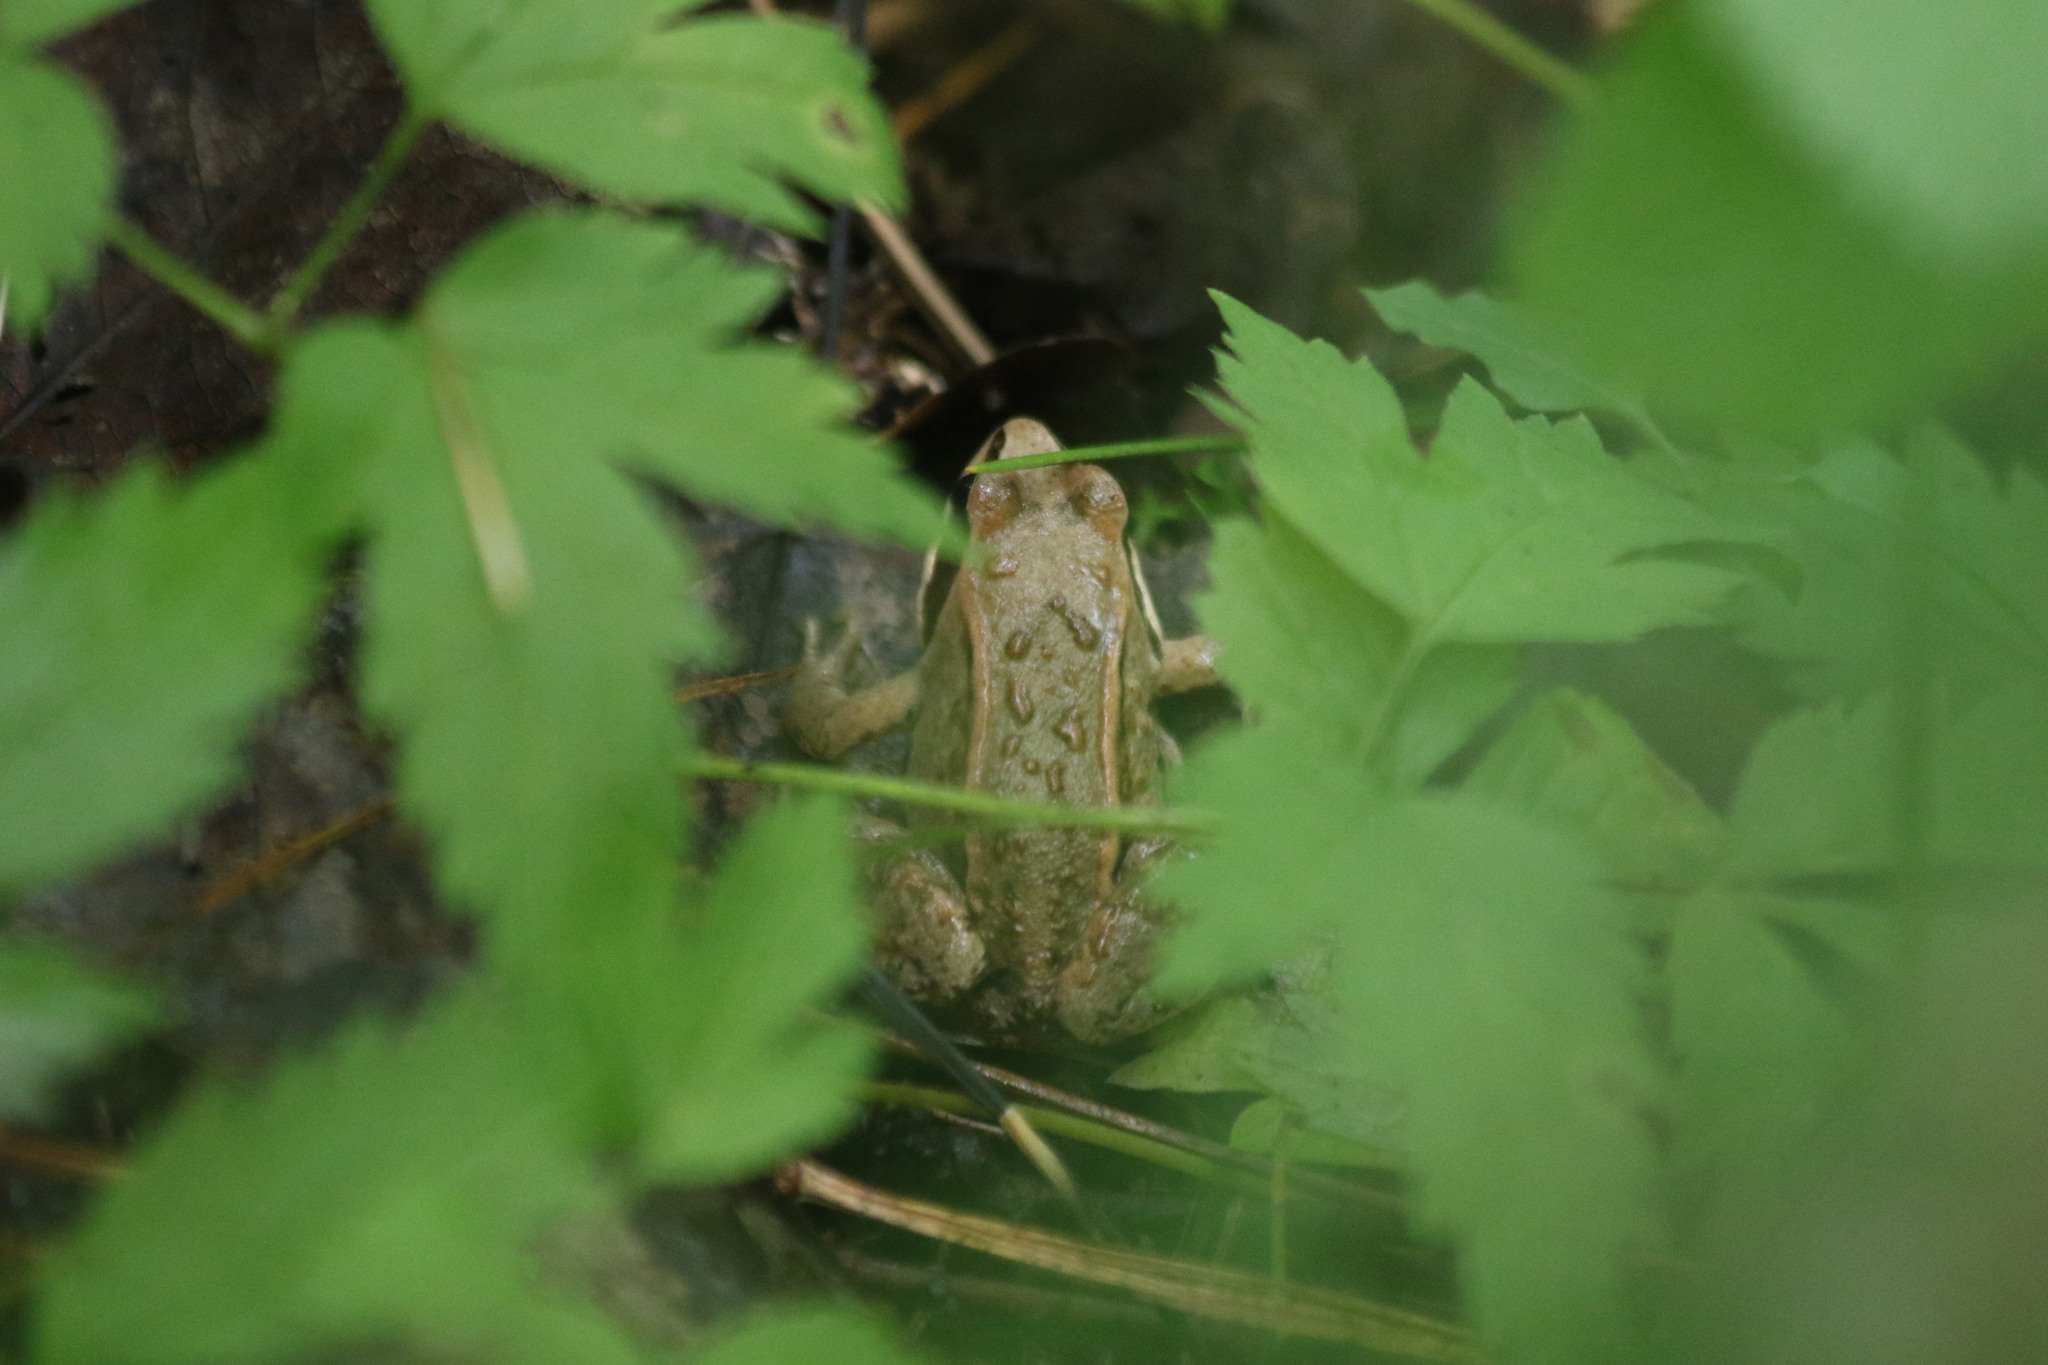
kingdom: Animalia
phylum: Chordata
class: Amphibia
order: Anura
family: Ranidae
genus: Rana
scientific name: Rana arvalis
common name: Moor frog
